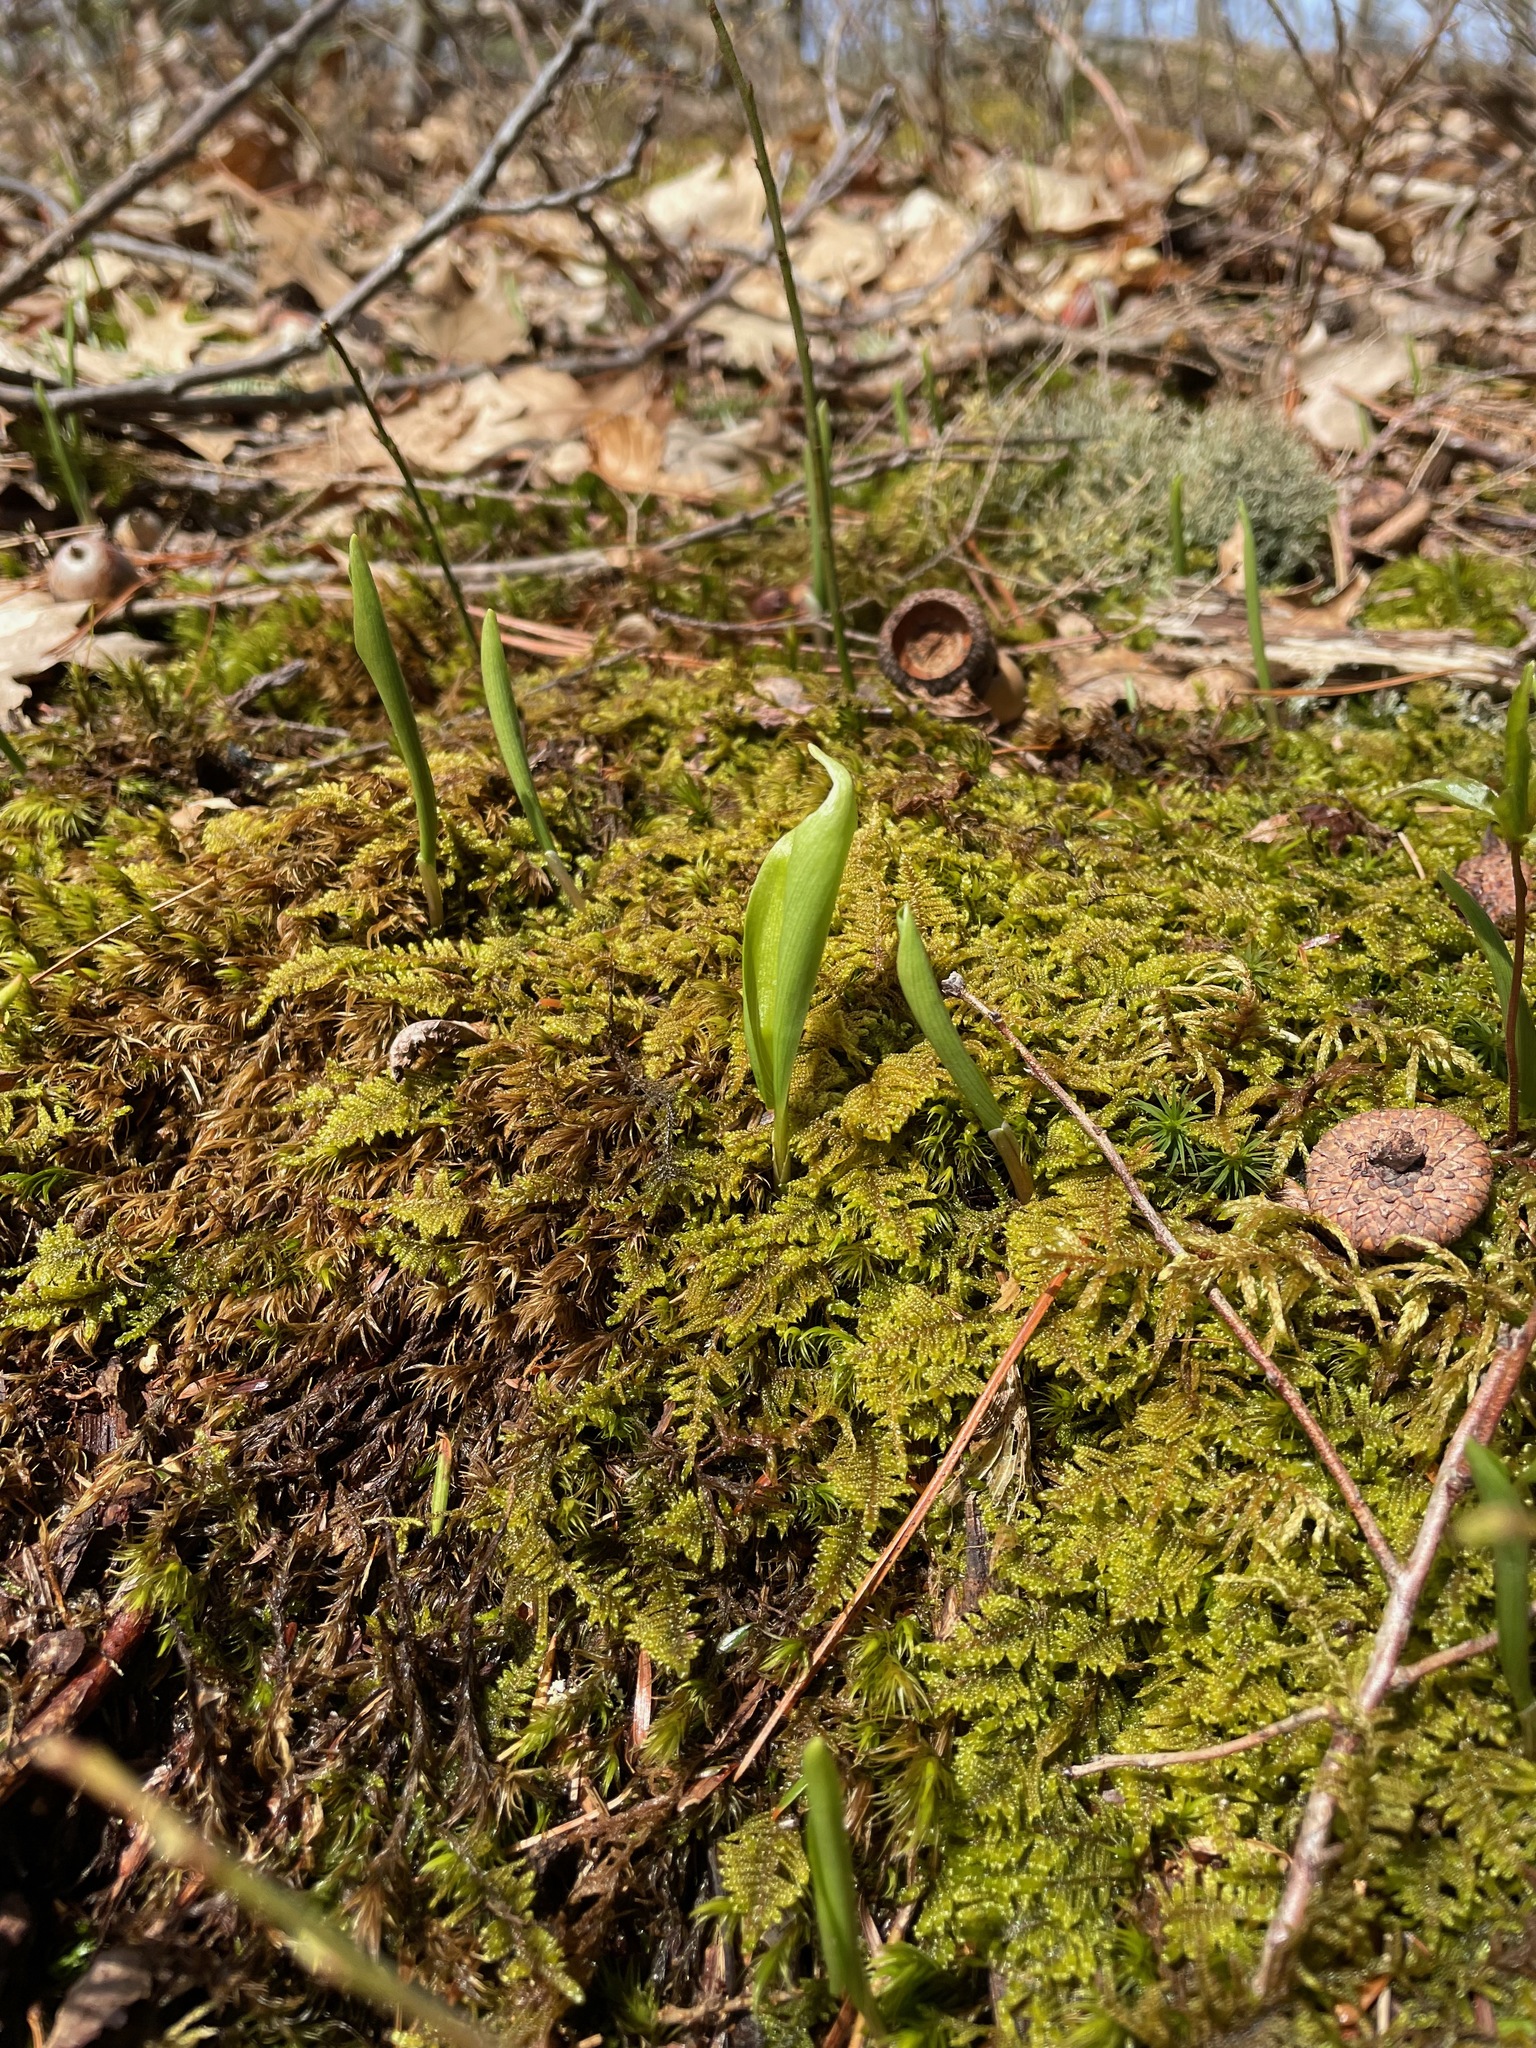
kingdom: Plantae
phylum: Tracheophyta
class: Liliopsida
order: Asparagales
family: Asparagaceae
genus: Maianthemum
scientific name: Maianthemum canadense
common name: False lily-of-the-valley
